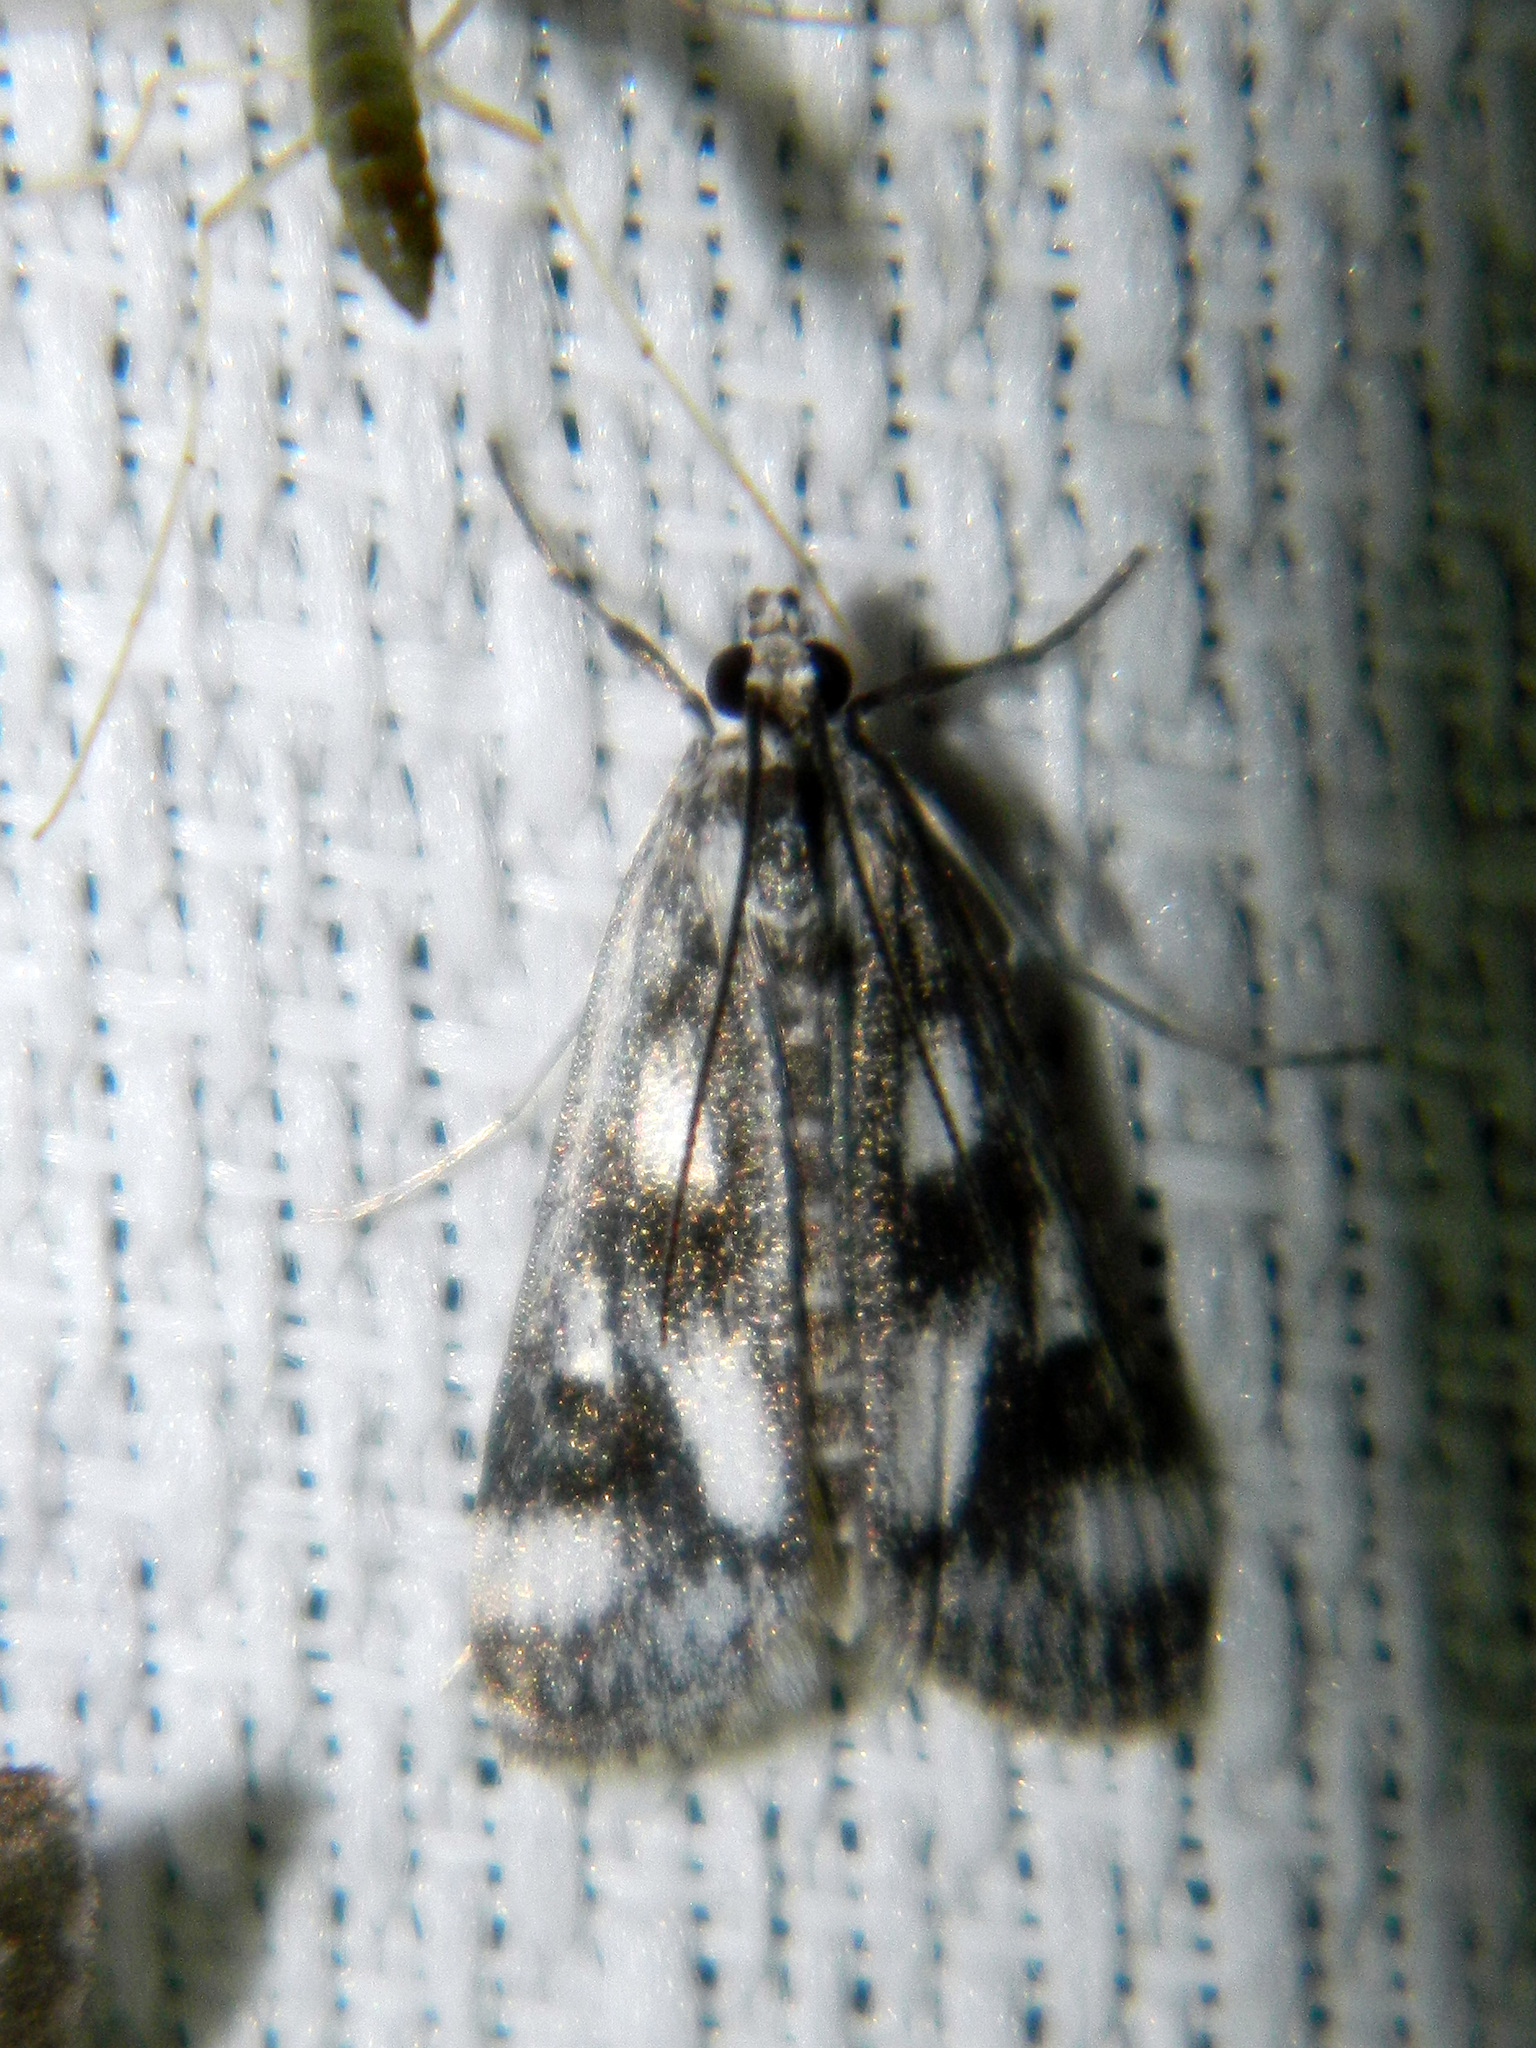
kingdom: Animalia
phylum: Arthropoda
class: Insecta
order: Lepidoptera
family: Crambidae
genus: Parapoynx
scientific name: Parapoynx maculalis
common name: Polymorphic pondweed moth
